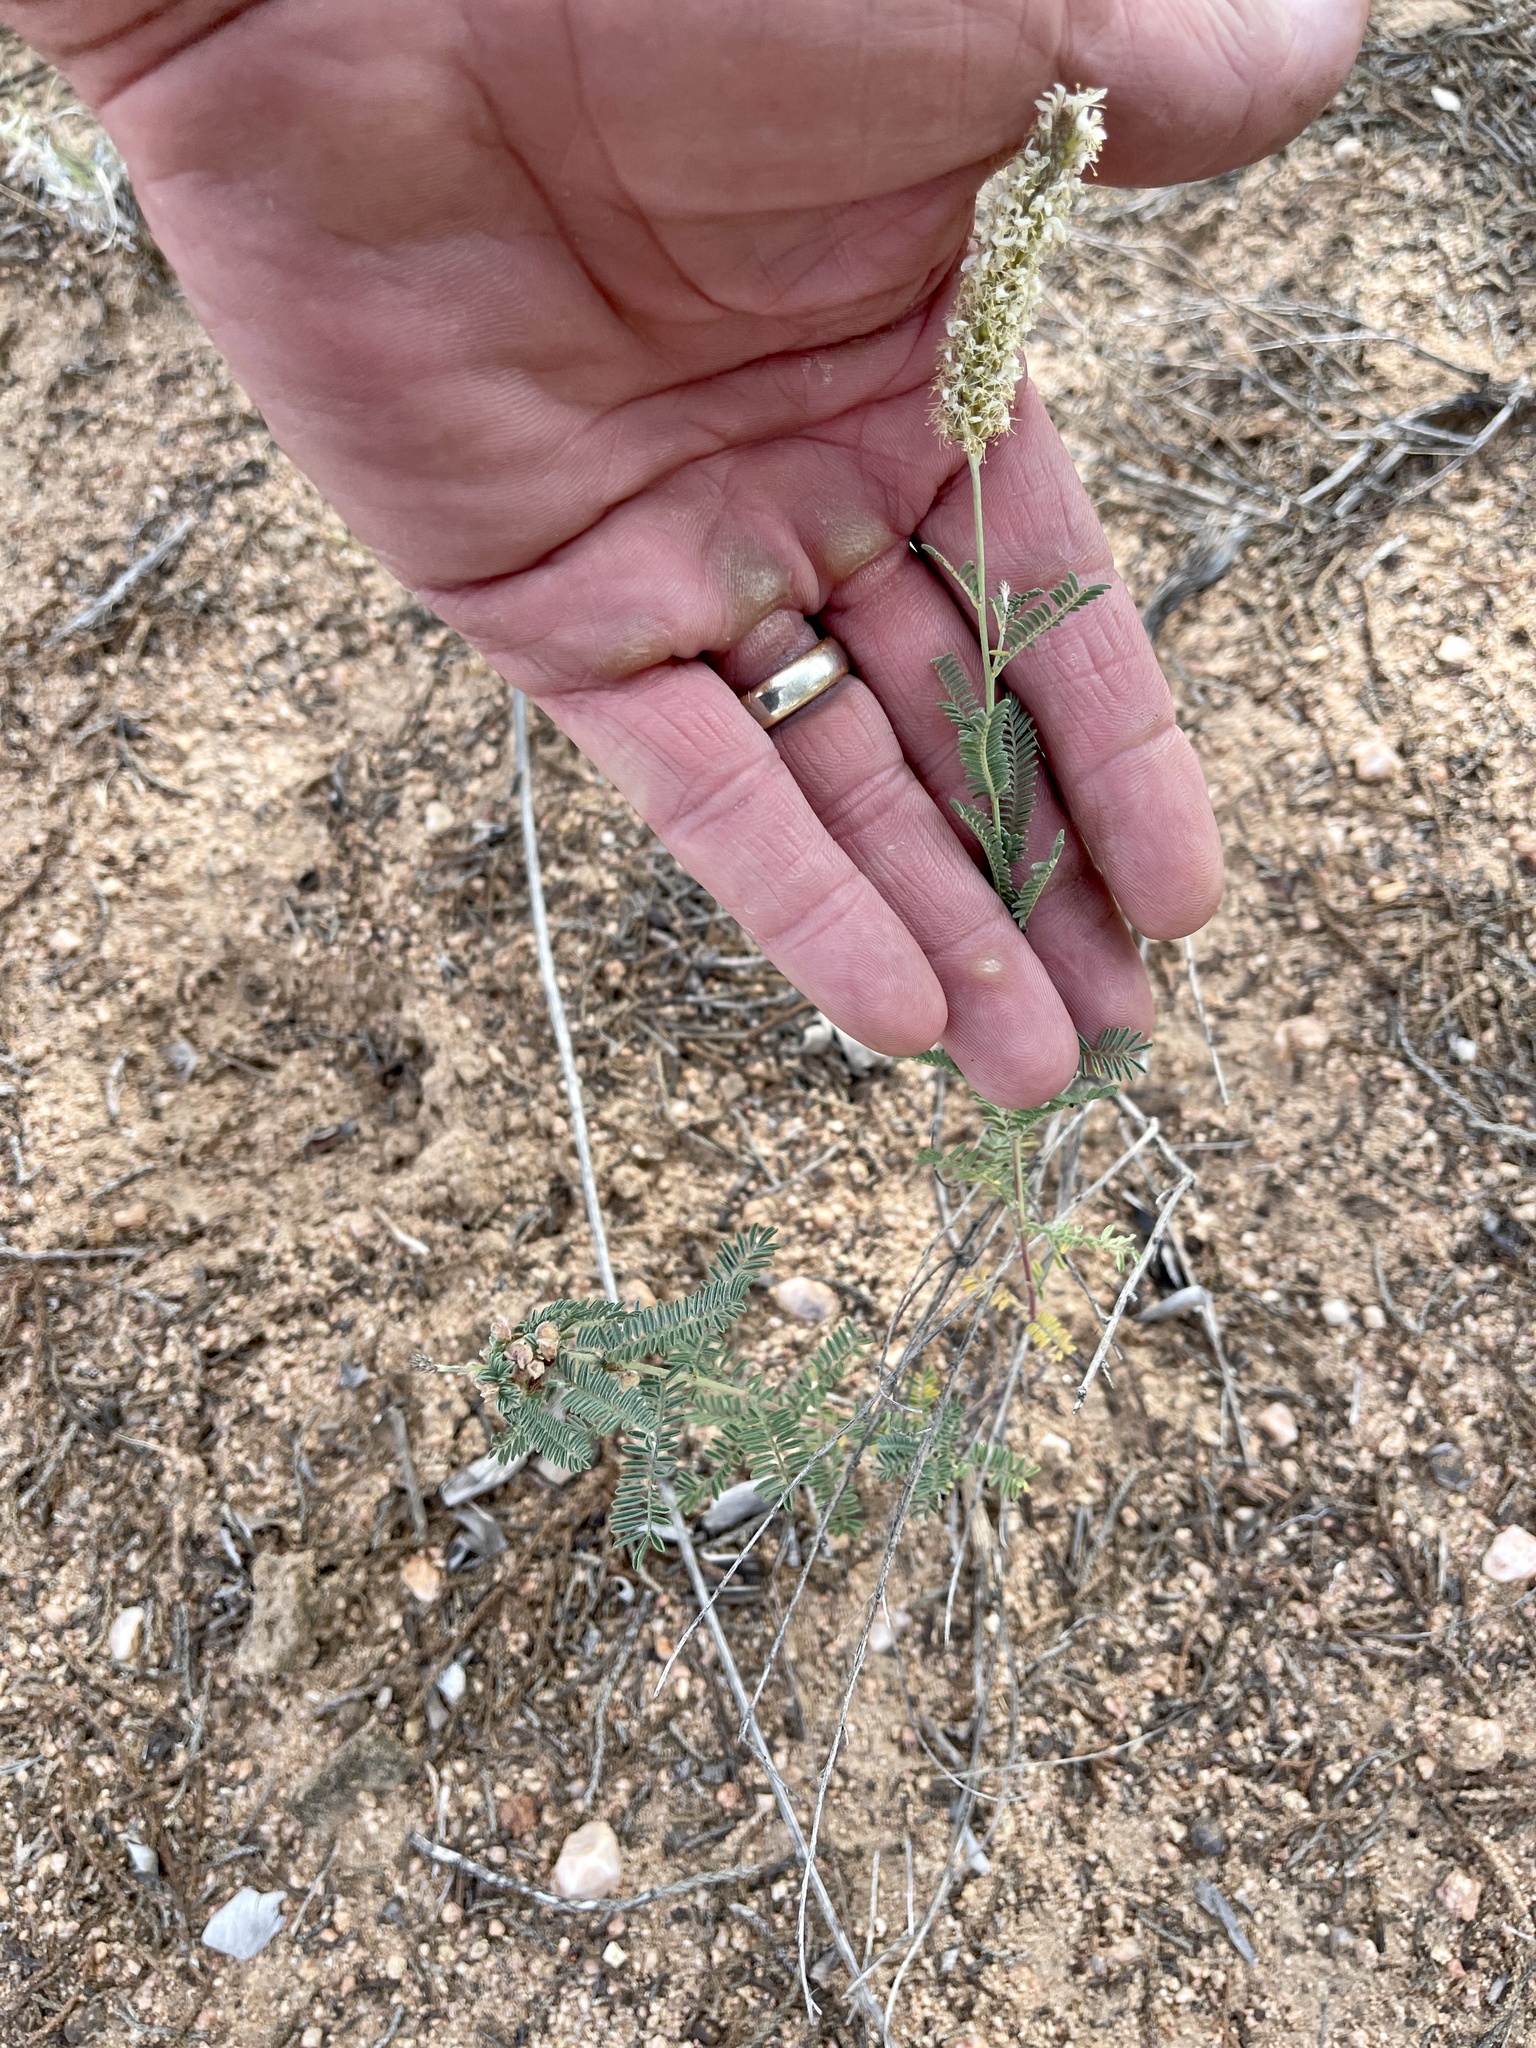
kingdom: Plantae
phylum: Tracheophyta
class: Magnoliopsida
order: Fabales
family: Fabaceae
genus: Dalea
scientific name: Dalea albiflora
